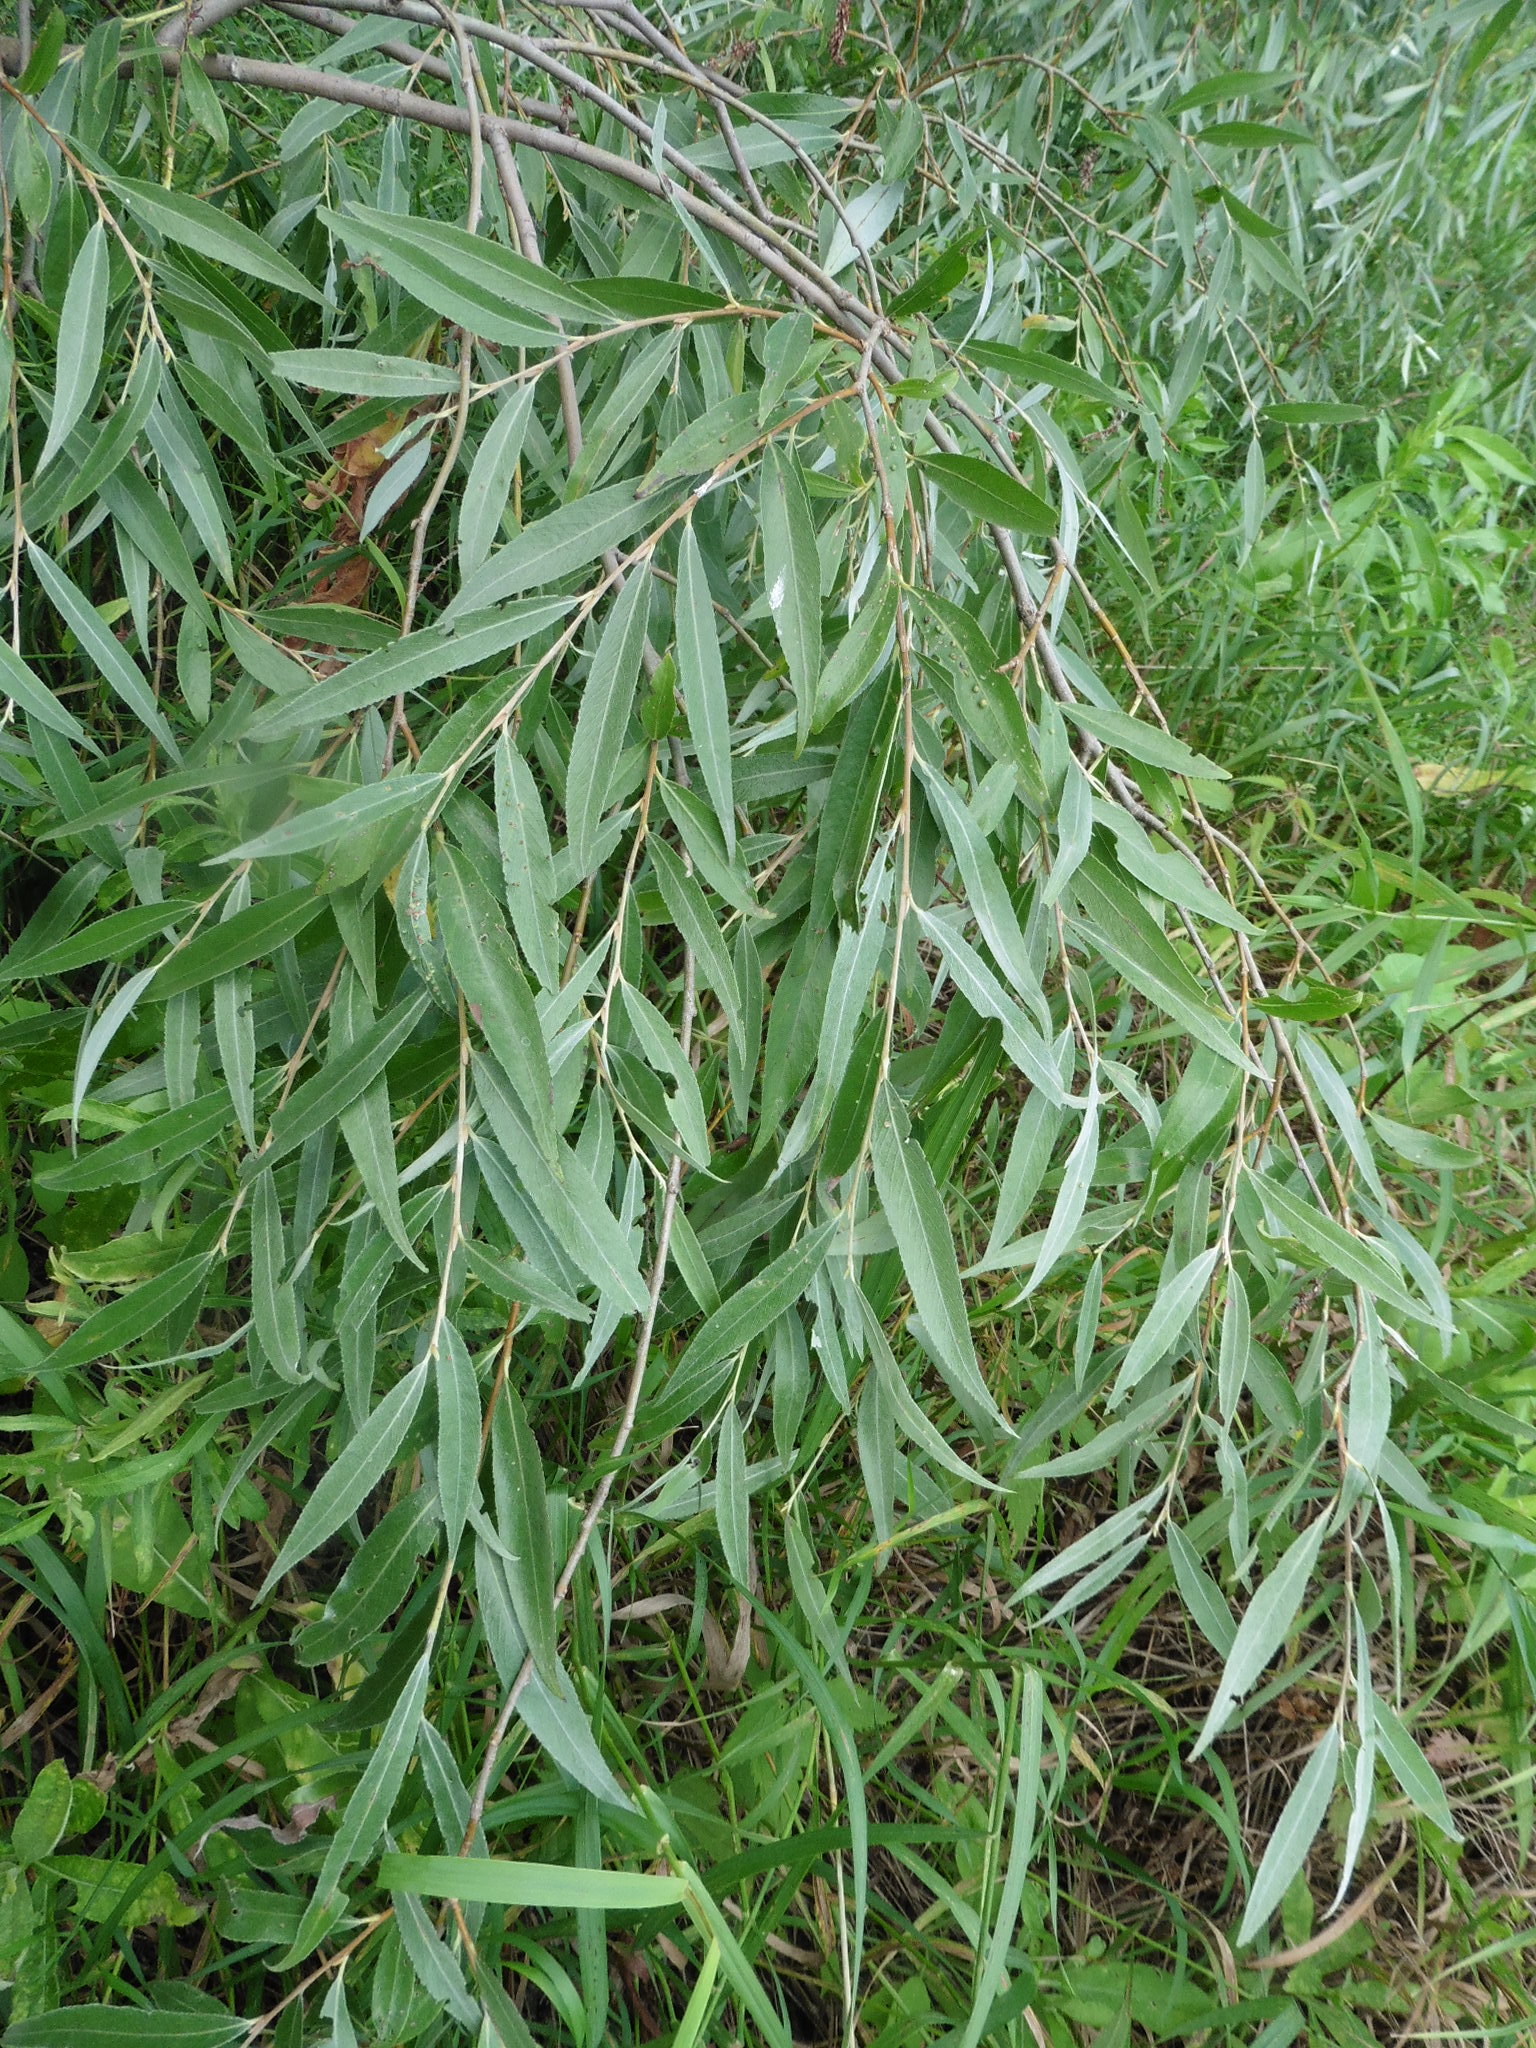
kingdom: Plantae
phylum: Tracheophyta
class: Magnoliopsida
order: Malpighiales
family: Salicaceae
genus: Salix
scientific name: Salix alba
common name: White willow
